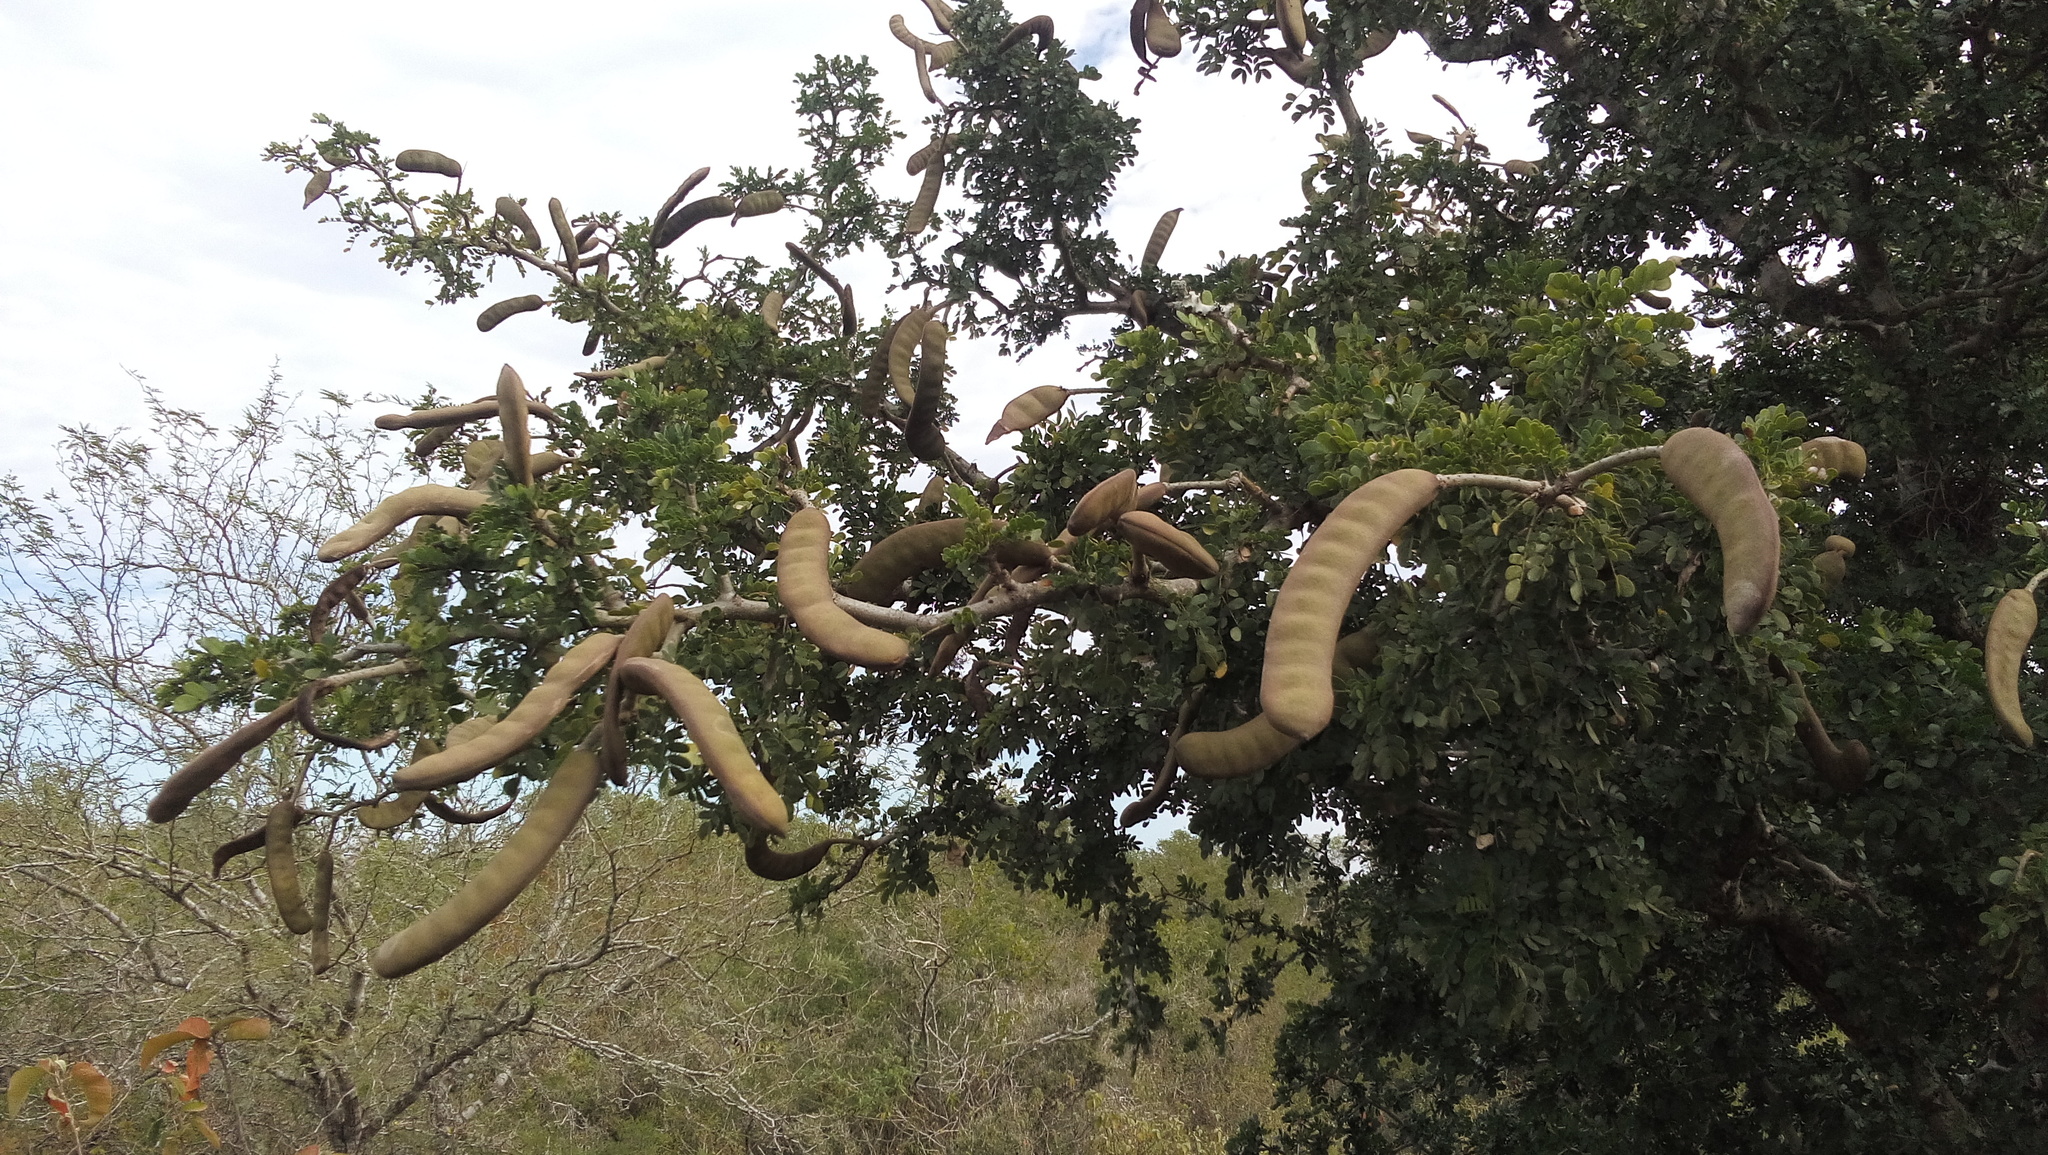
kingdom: Plantae
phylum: Tracheophyta
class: Magnoliopsida
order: Fabales
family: Fabaceae
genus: Ebenopsis
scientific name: Ebenopsis ebano
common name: Ebony blackbead
